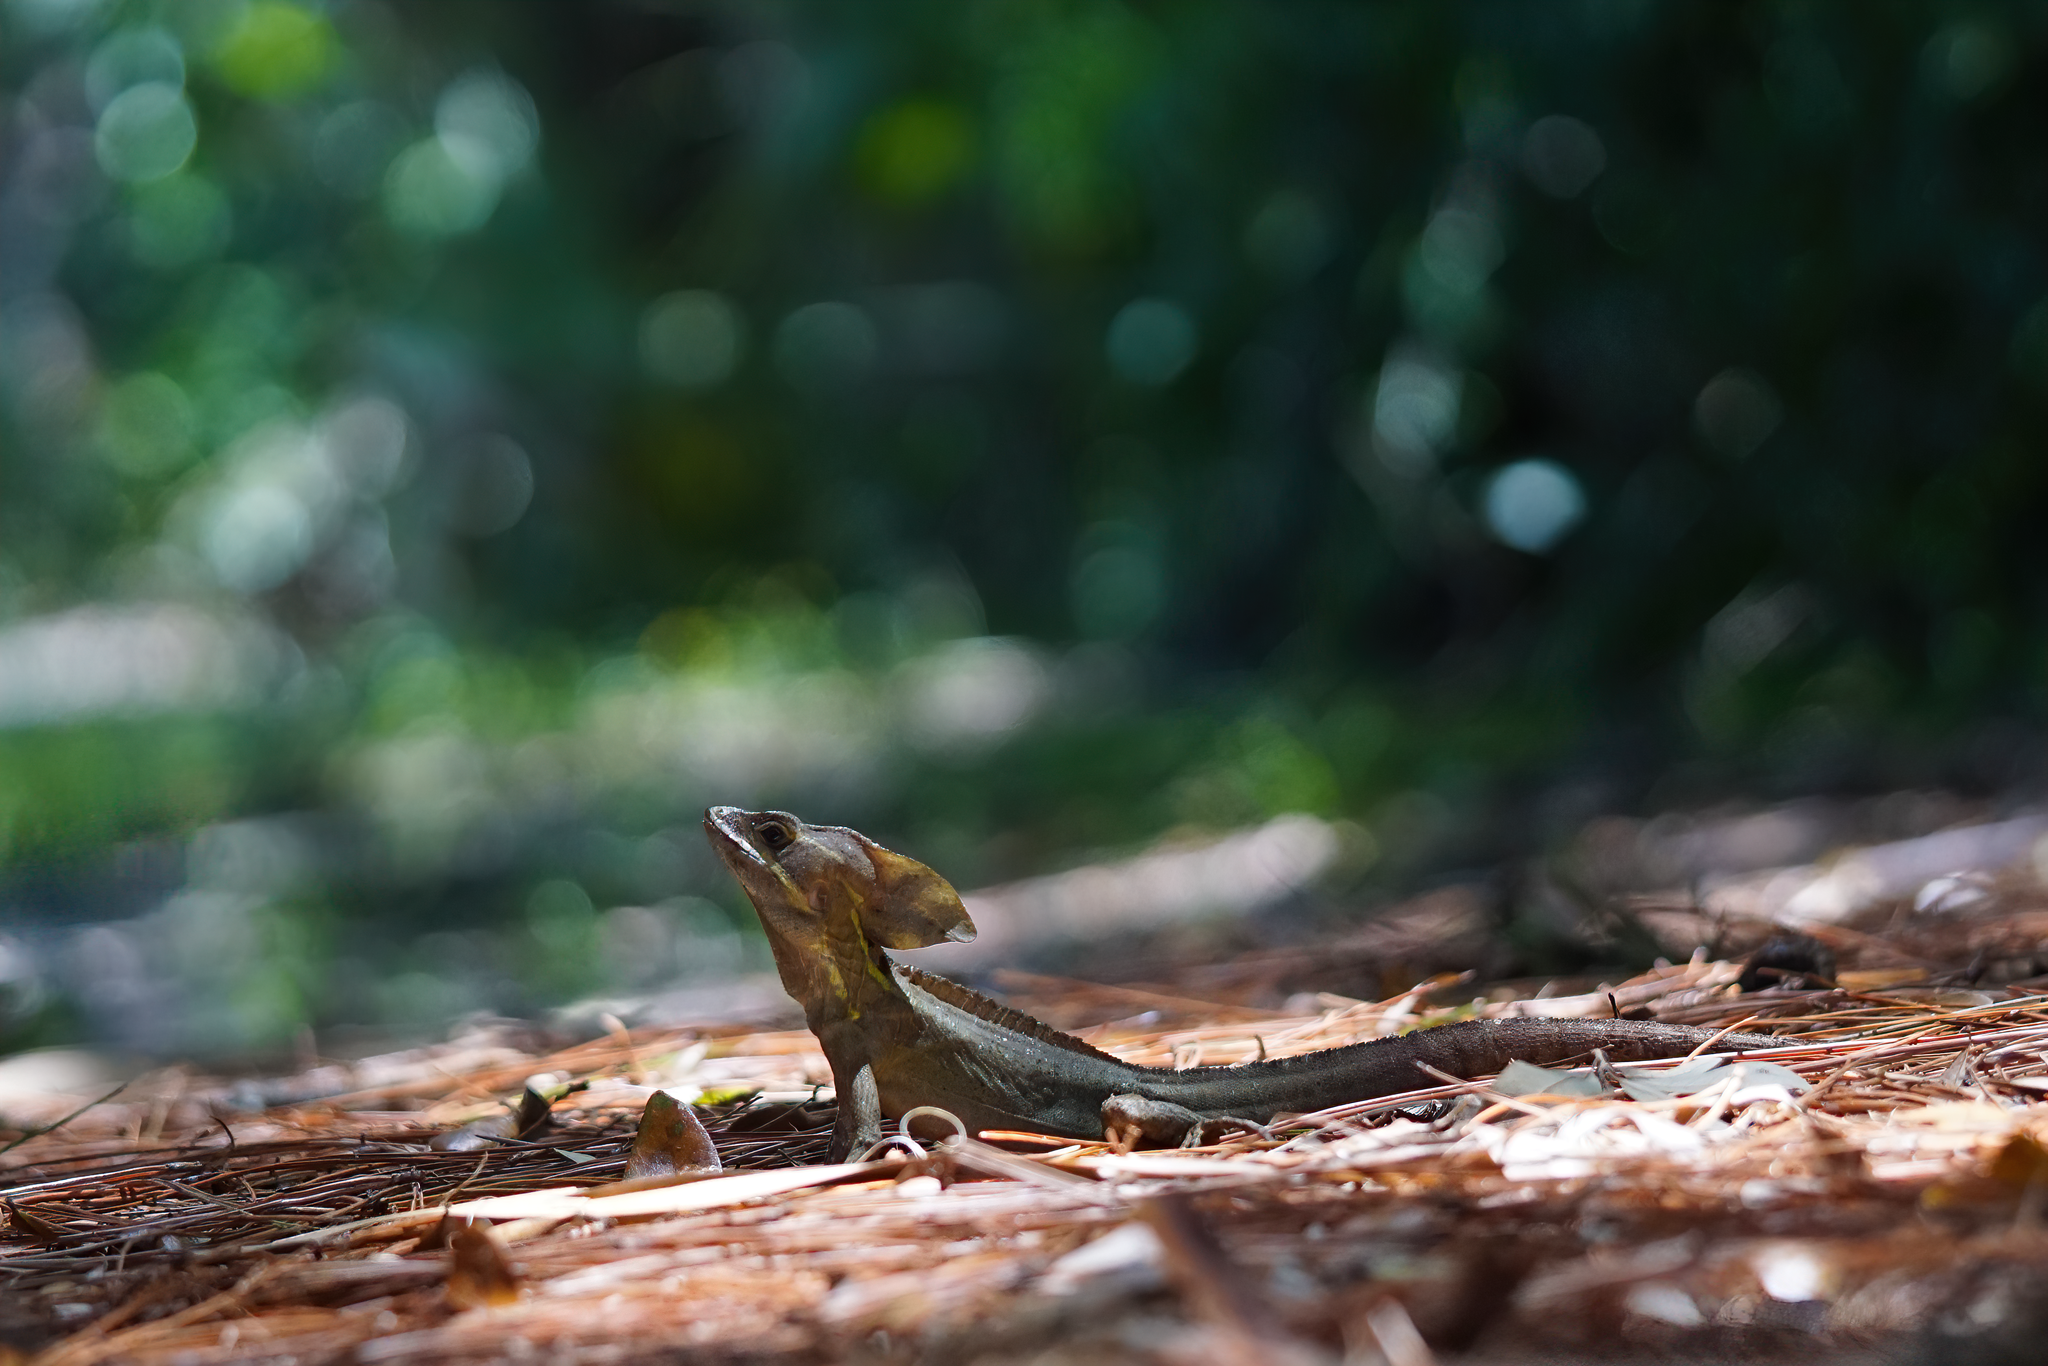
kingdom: Animalia
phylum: Chordata
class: Squamata
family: Corytophanidae
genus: Basiliscus
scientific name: Basiliscus vittatus
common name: Brown basilisk
